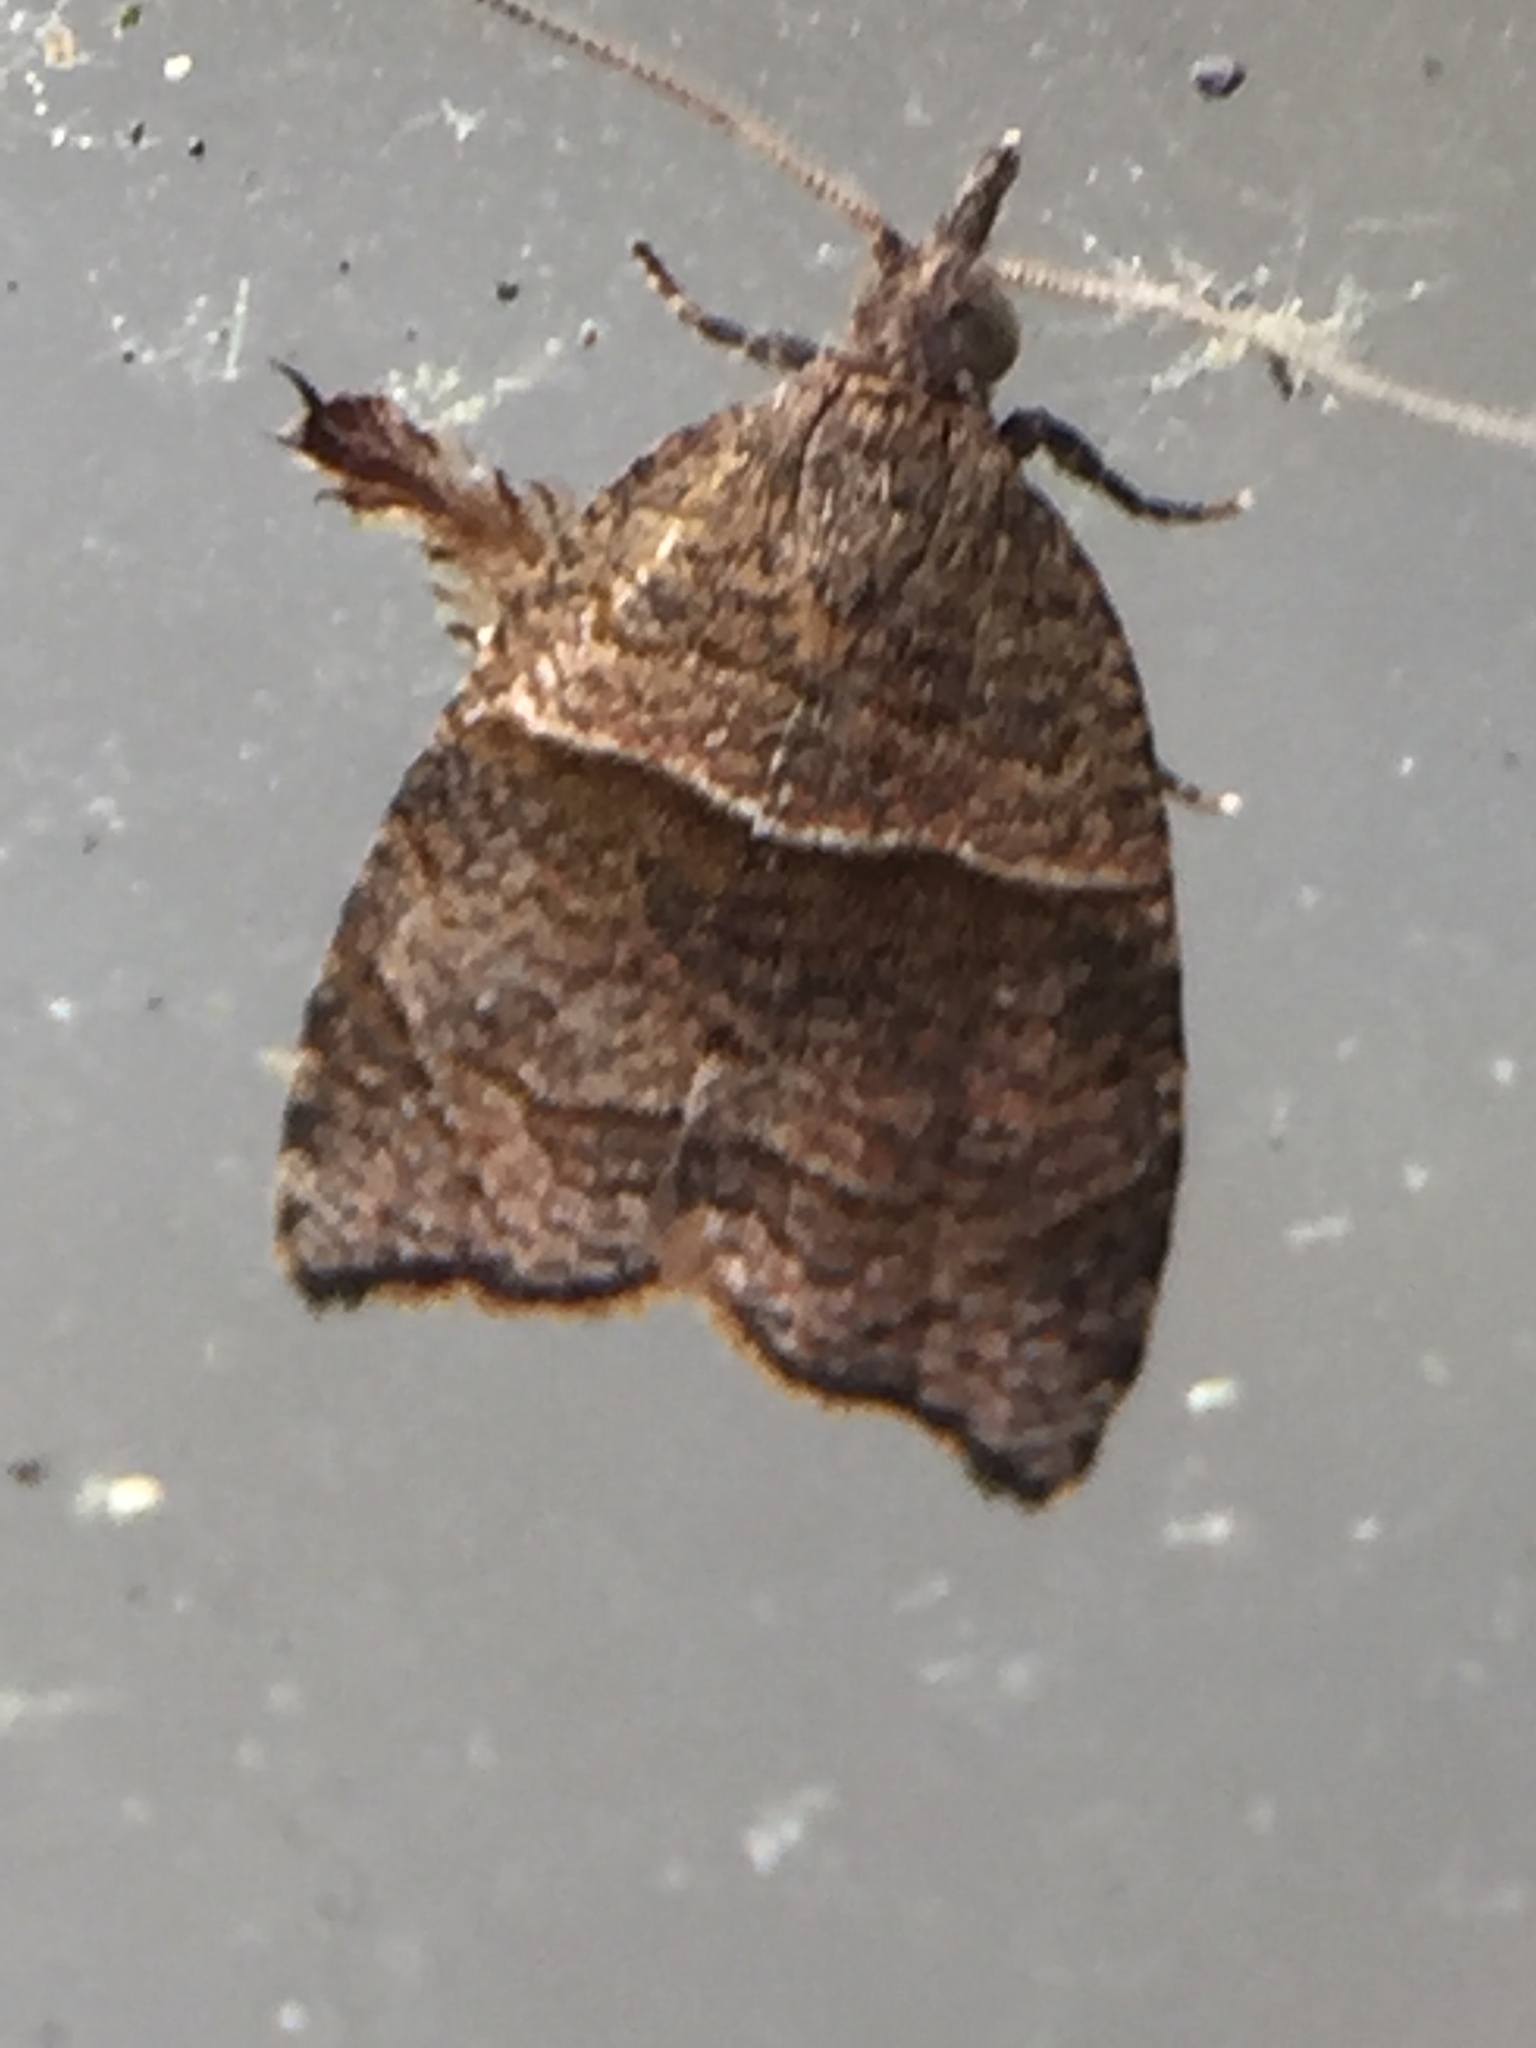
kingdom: Animalia
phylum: Arthropoda
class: Insecta
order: Lepidoptera
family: Tortricidae
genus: Cnephasia
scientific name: Cnephasia incertana
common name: Light grey tortrix
